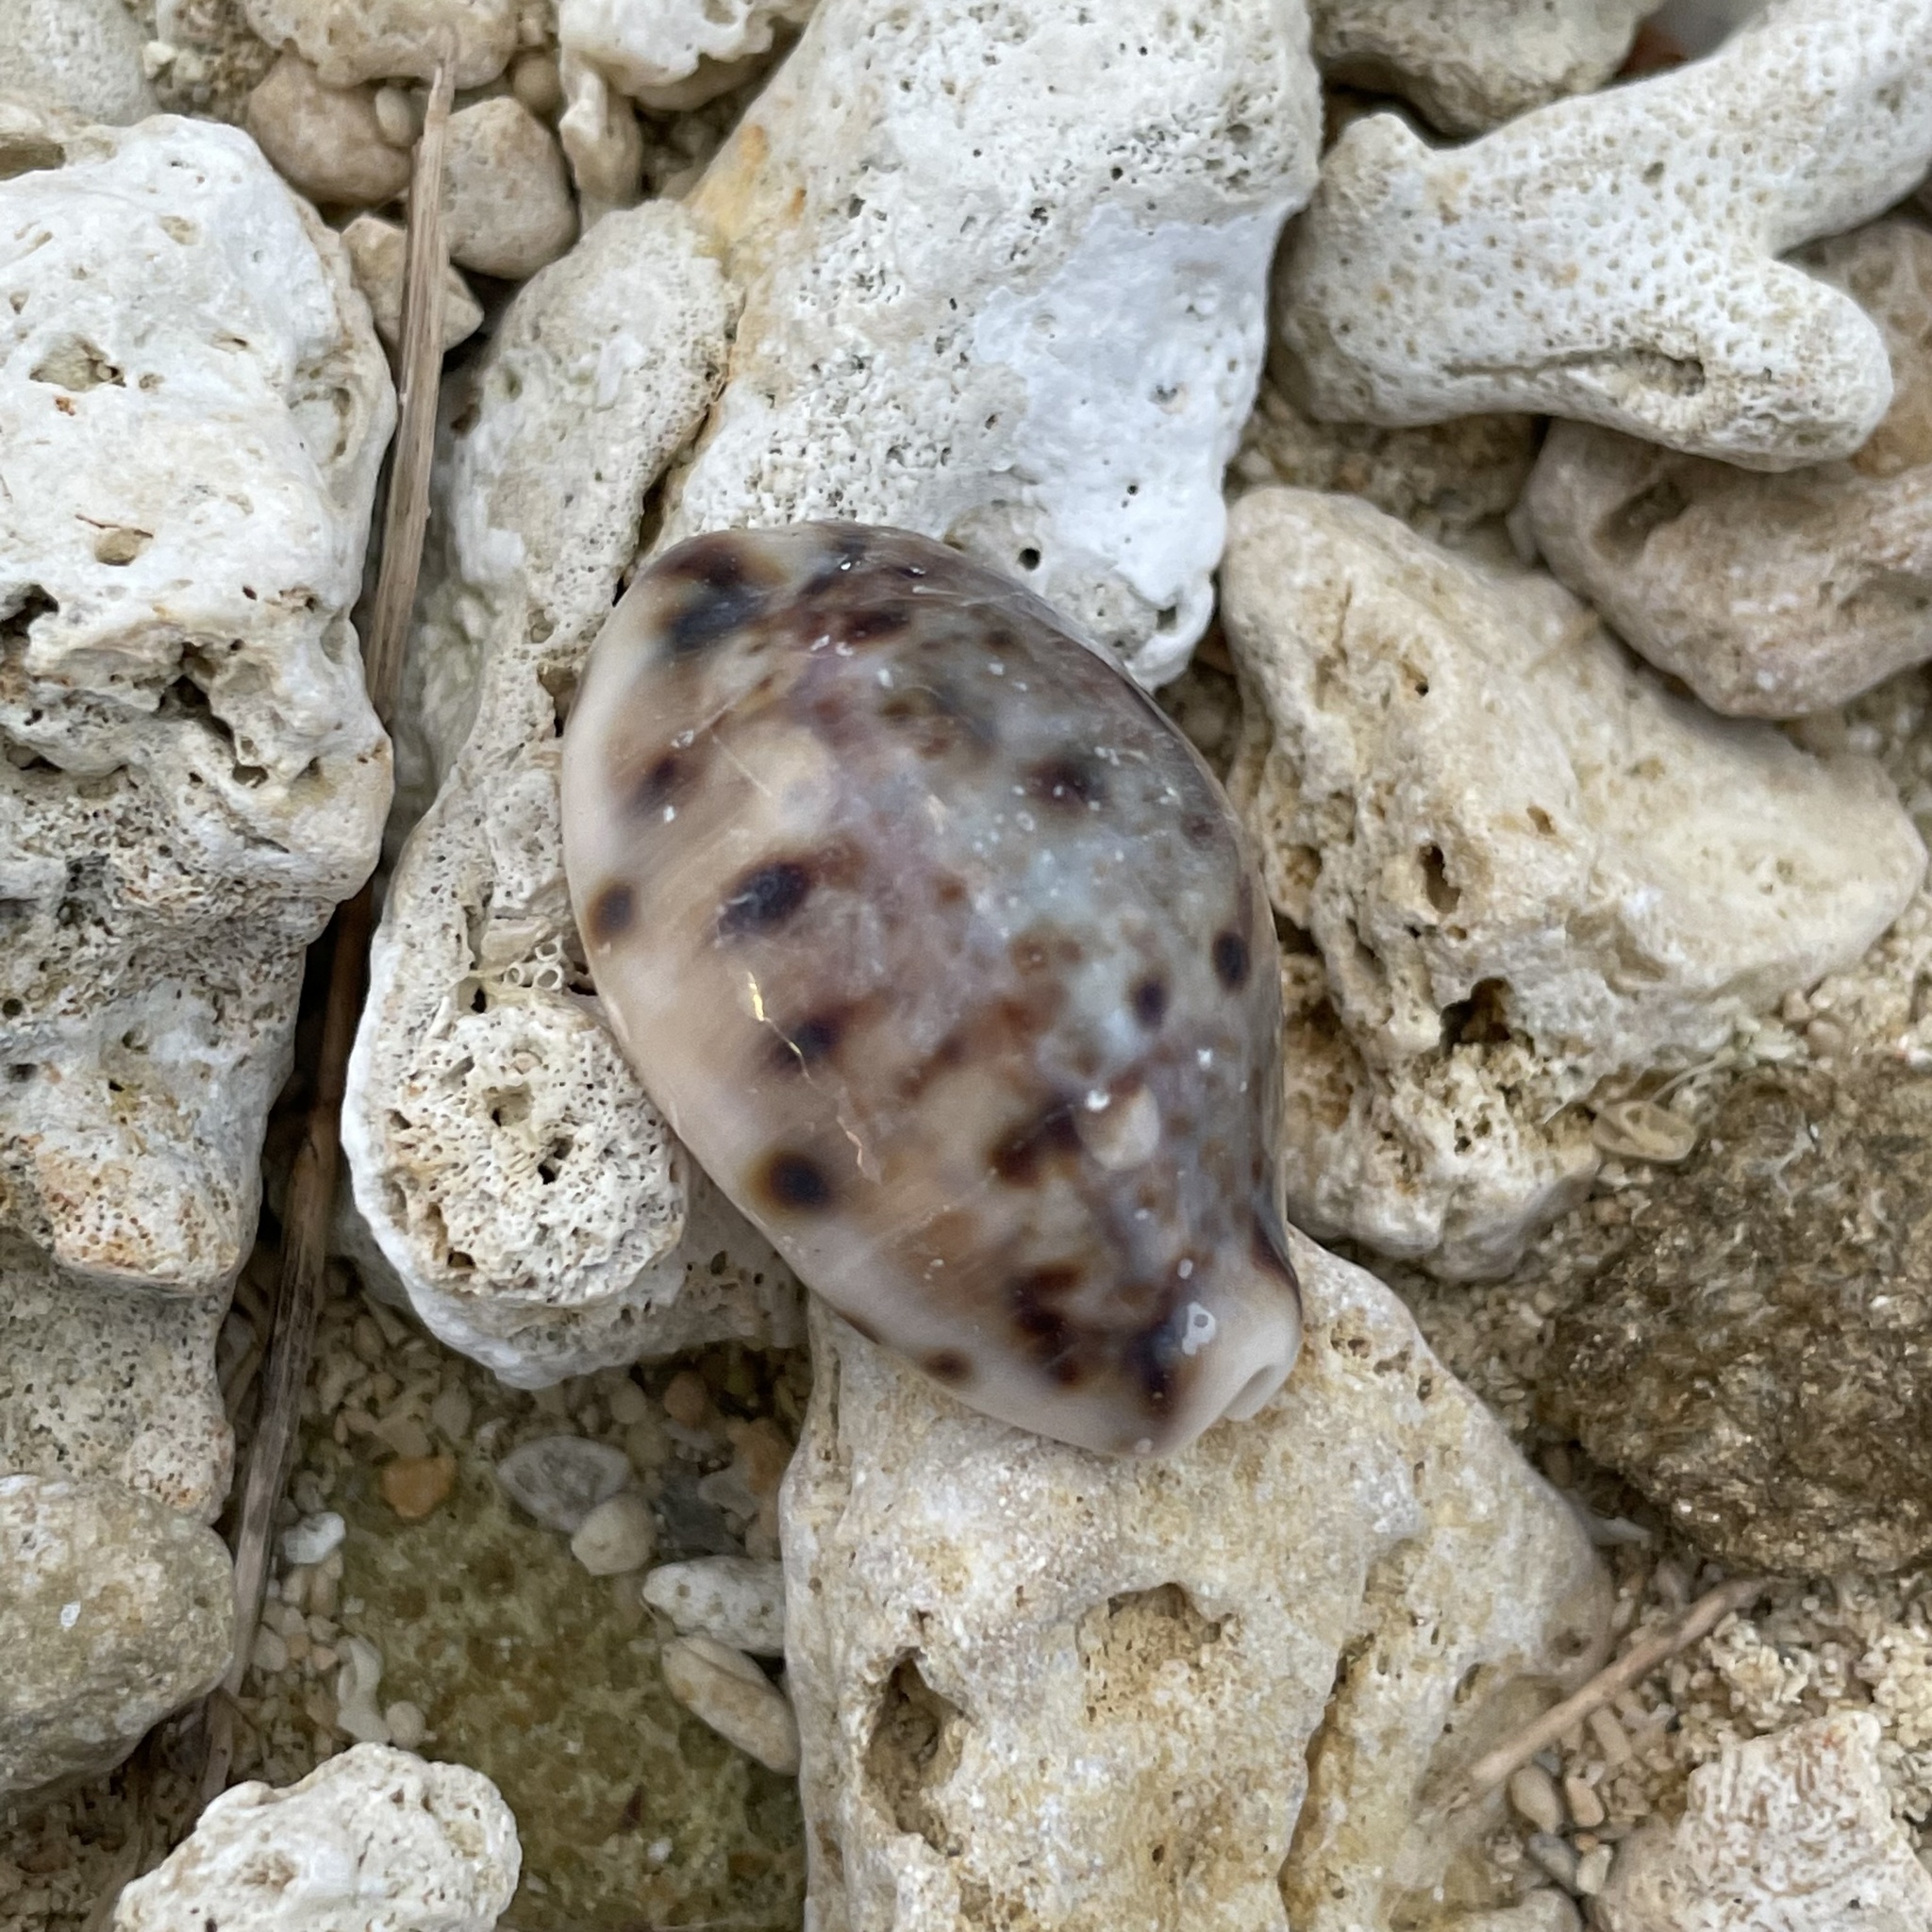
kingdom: Animalia
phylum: Mollusca
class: Gastropoda
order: Littorinimorpha
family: Cypraeidae
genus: Lyncina
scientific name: Lyncina lynx
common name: Bobcat cowrie
